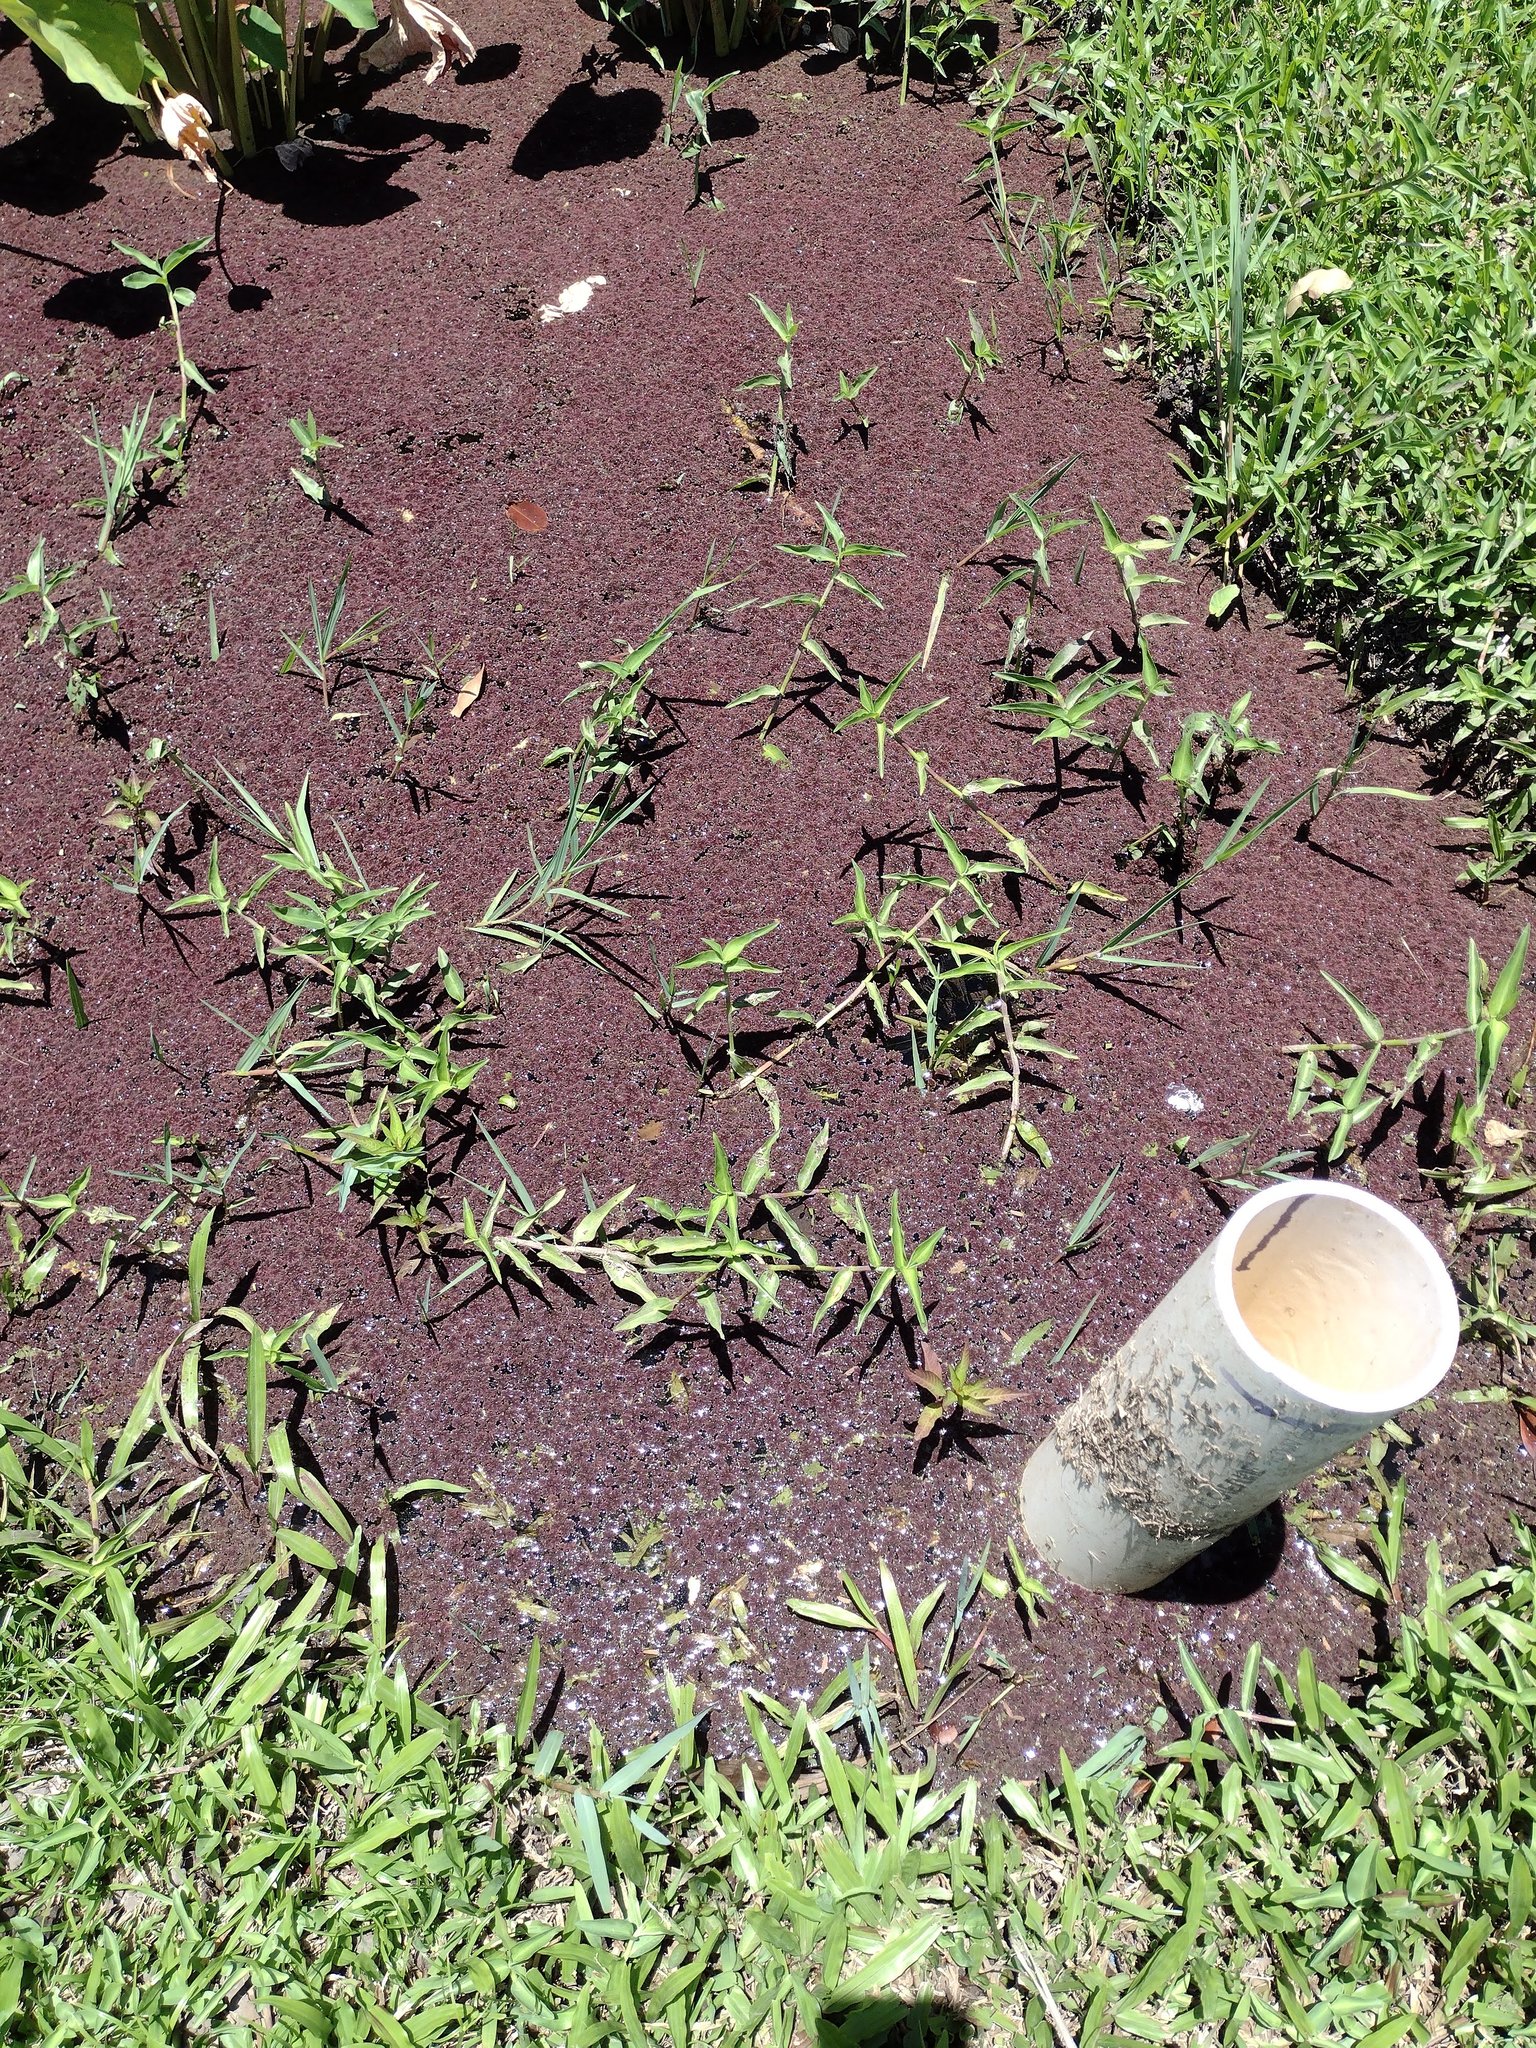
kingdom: Plantae
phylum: Tracheophyta
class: Polypodiopsida
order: Salviniales
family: Salviniaceae
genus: Azolla
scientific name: Azolla filiculoides
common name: Water fern
